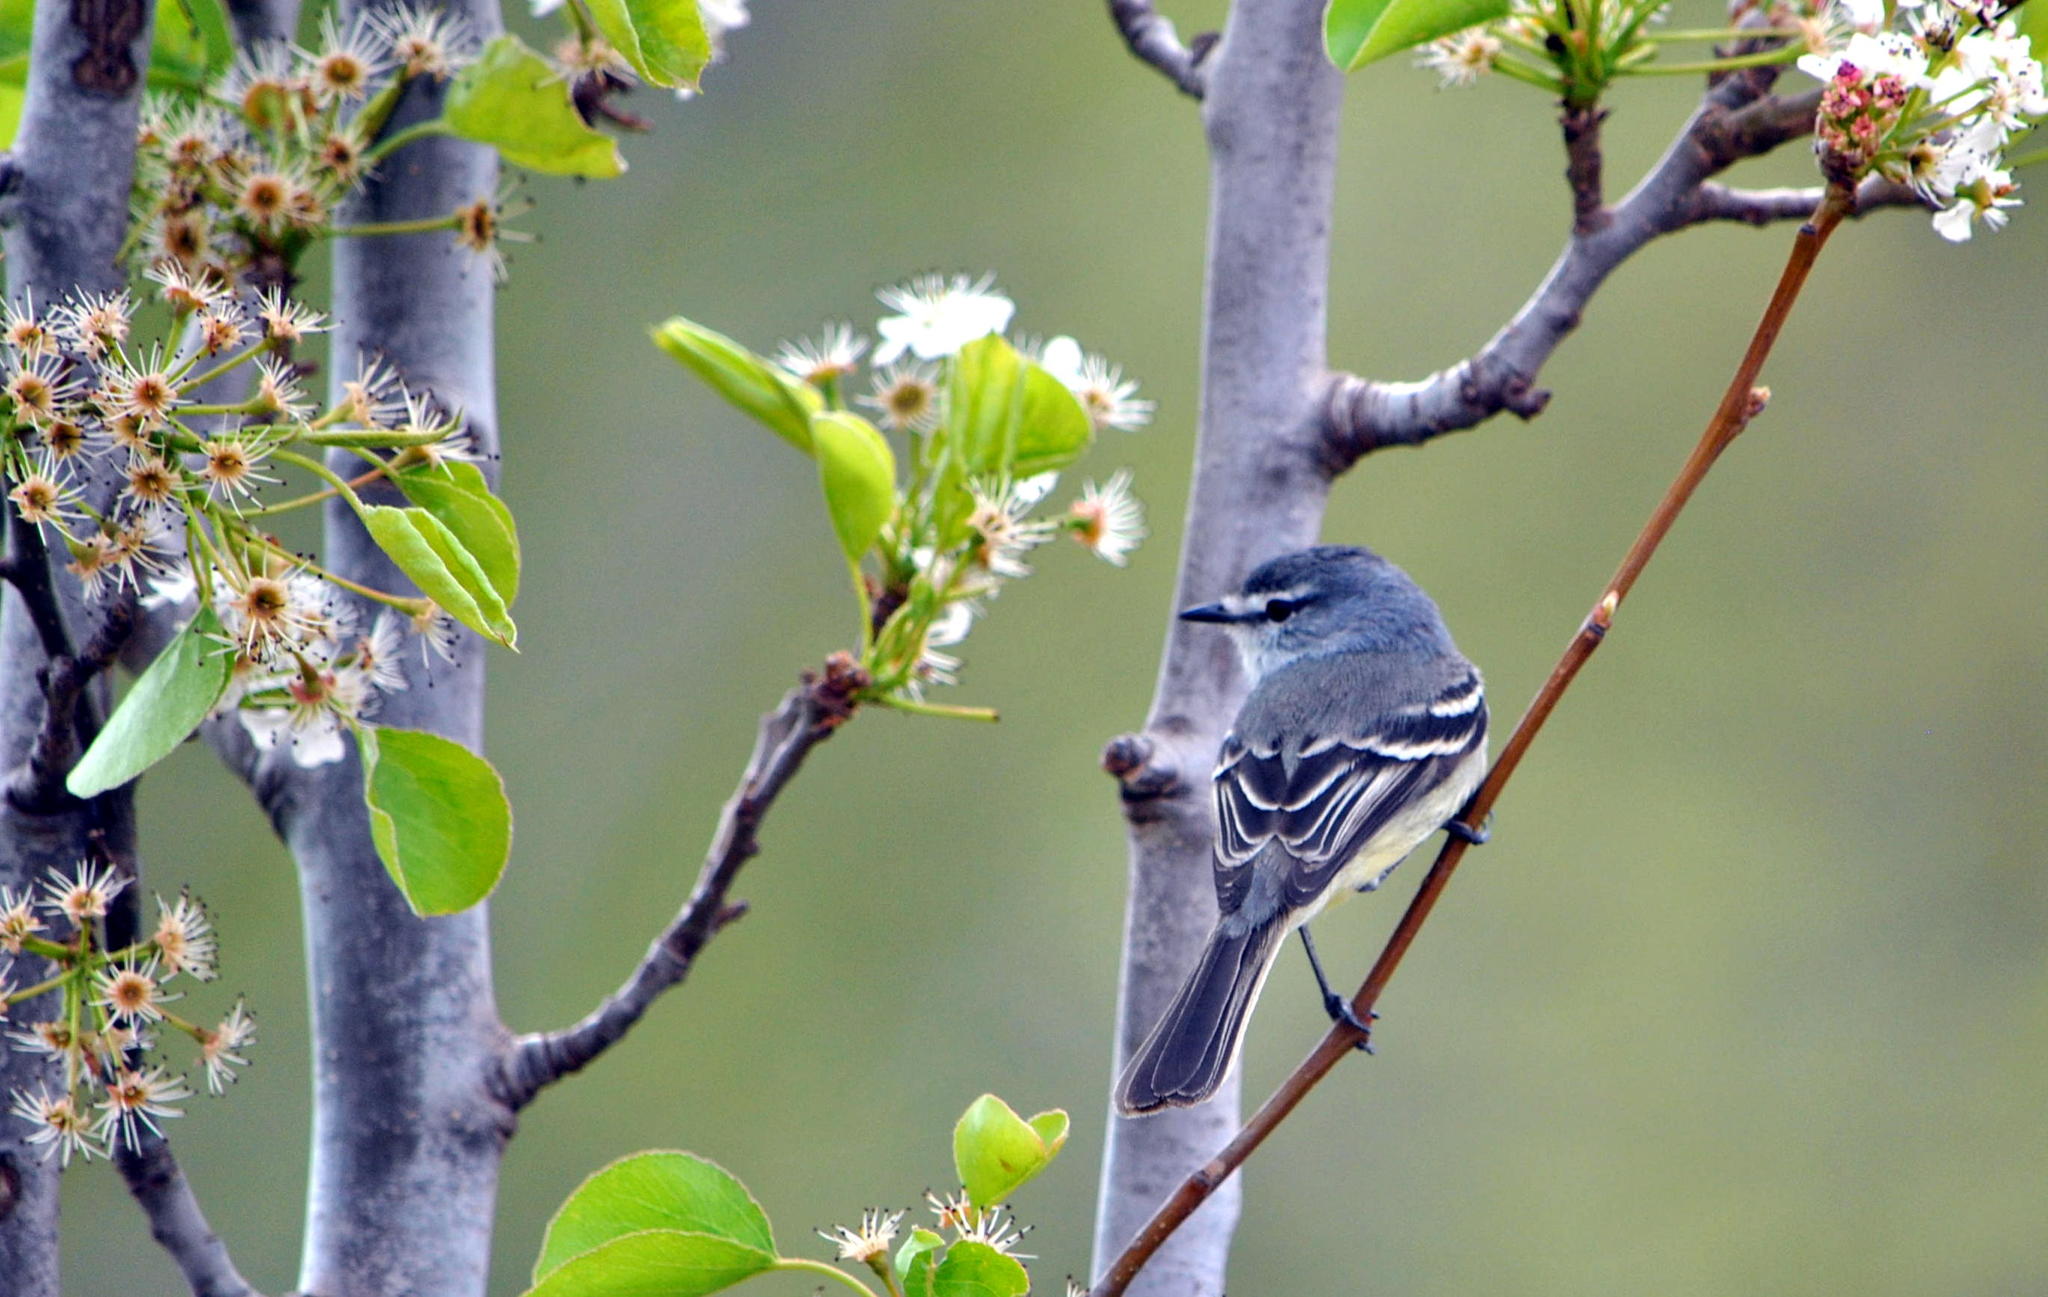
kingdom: Animalia
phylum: Chordata
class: Aves
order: Passeriformes
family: Tyrannidae
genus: Serpophaga
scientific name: Serpophaga subcristata
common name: White-crested tyrannulet
